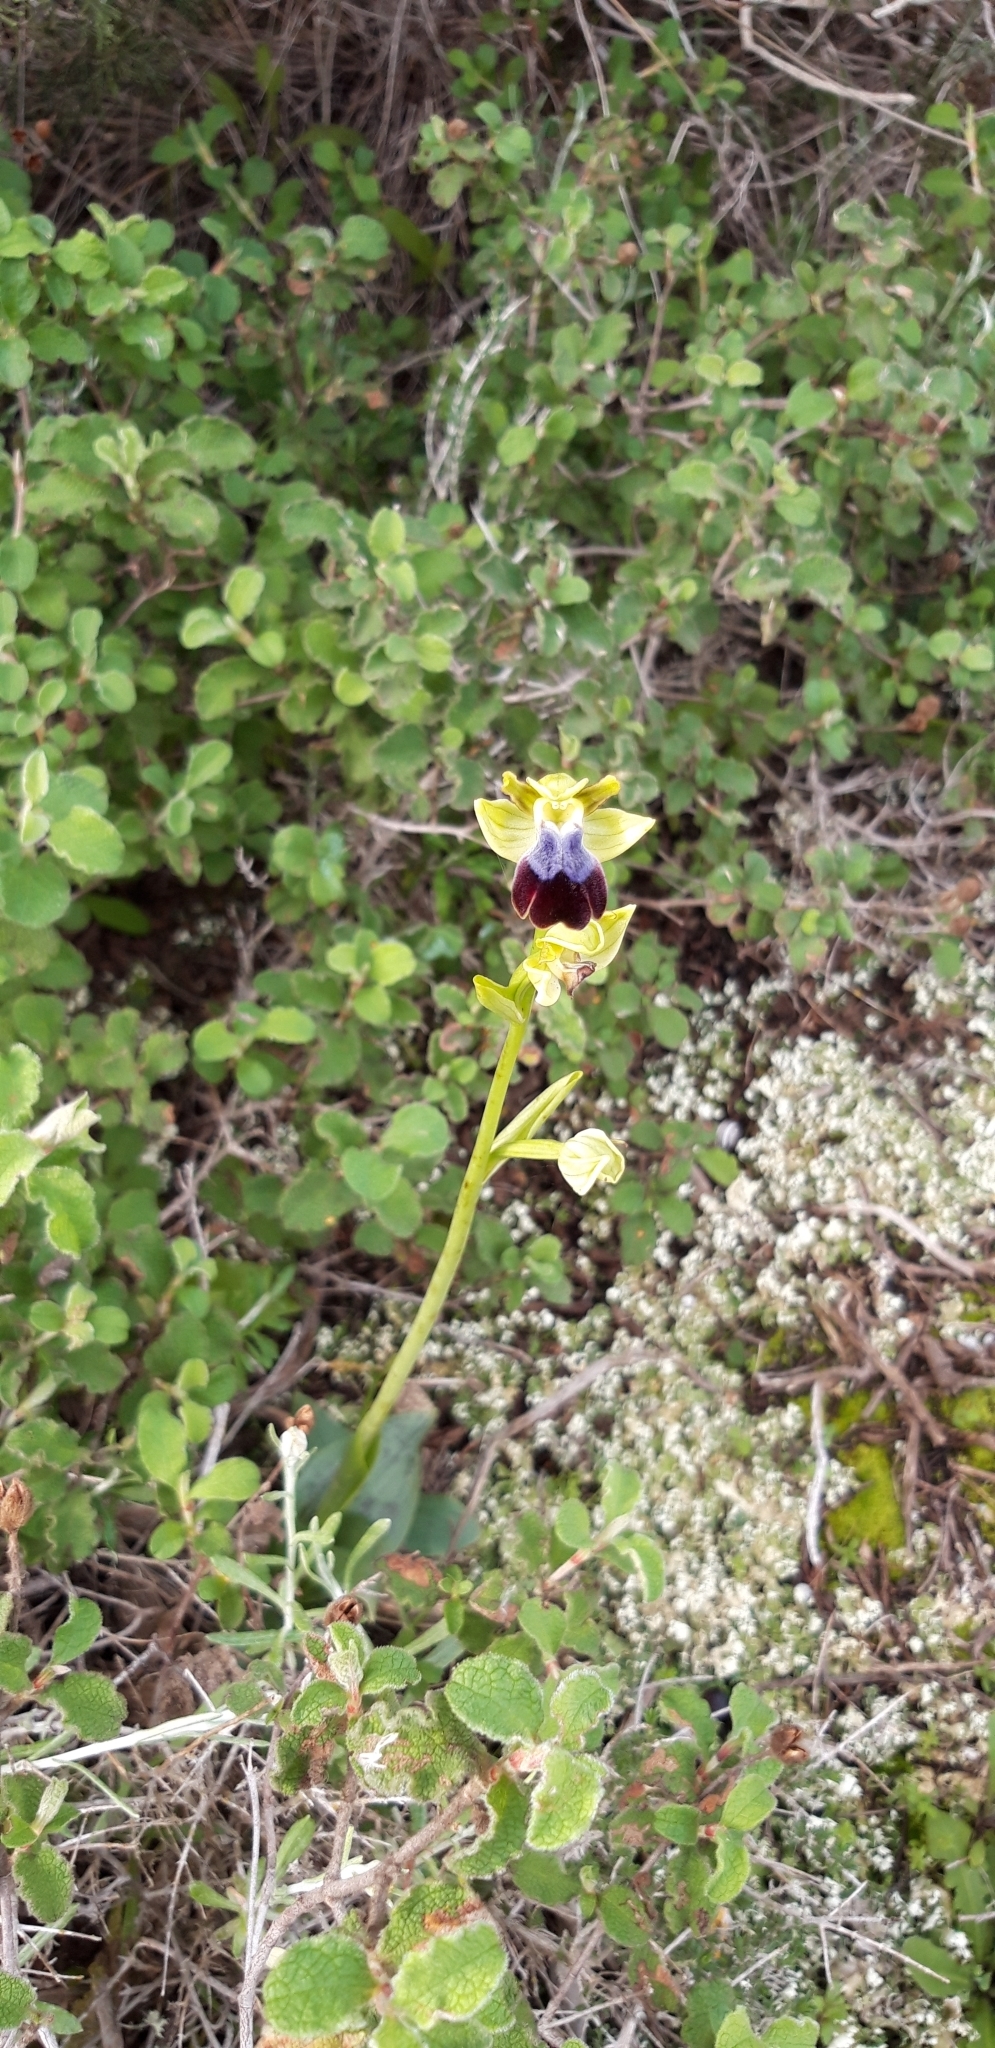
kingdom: Plantae
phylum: Tracheophyta
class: Liliopsida
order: Asparagales
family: Orchidaceae
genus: Ophrys
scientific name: Ophrys fusca
